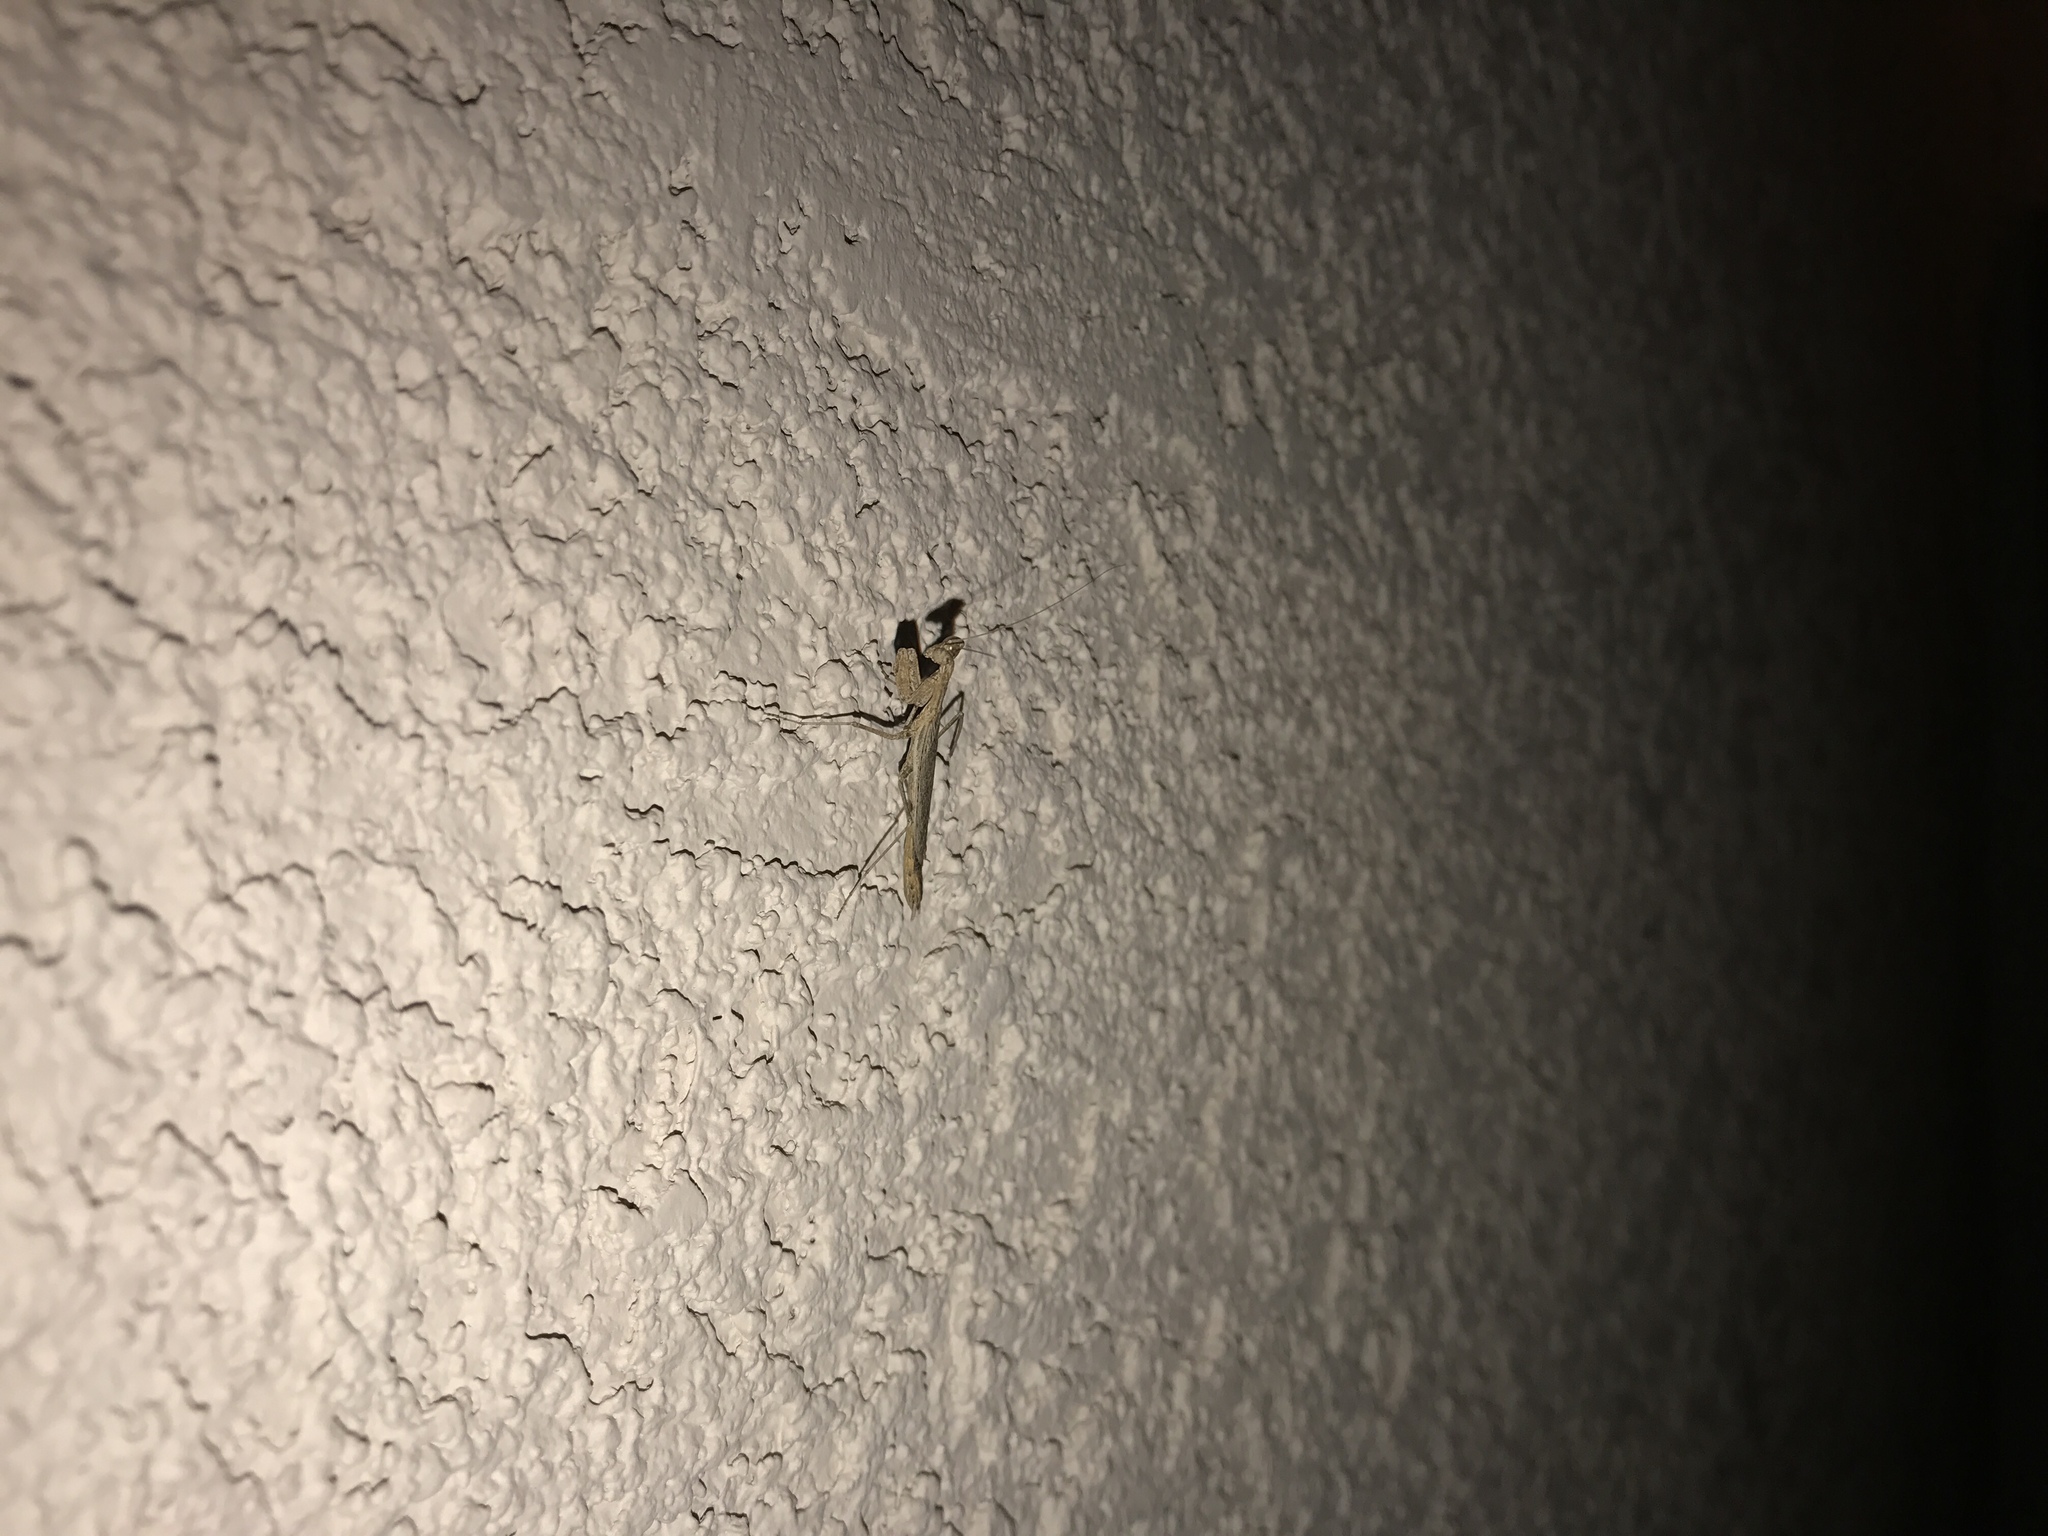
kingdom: Animalia
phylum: Arthropoda
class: Insecta
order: Mantodea
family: Amelidae
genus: Litaneutria
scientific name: Litaneutria ocularis
